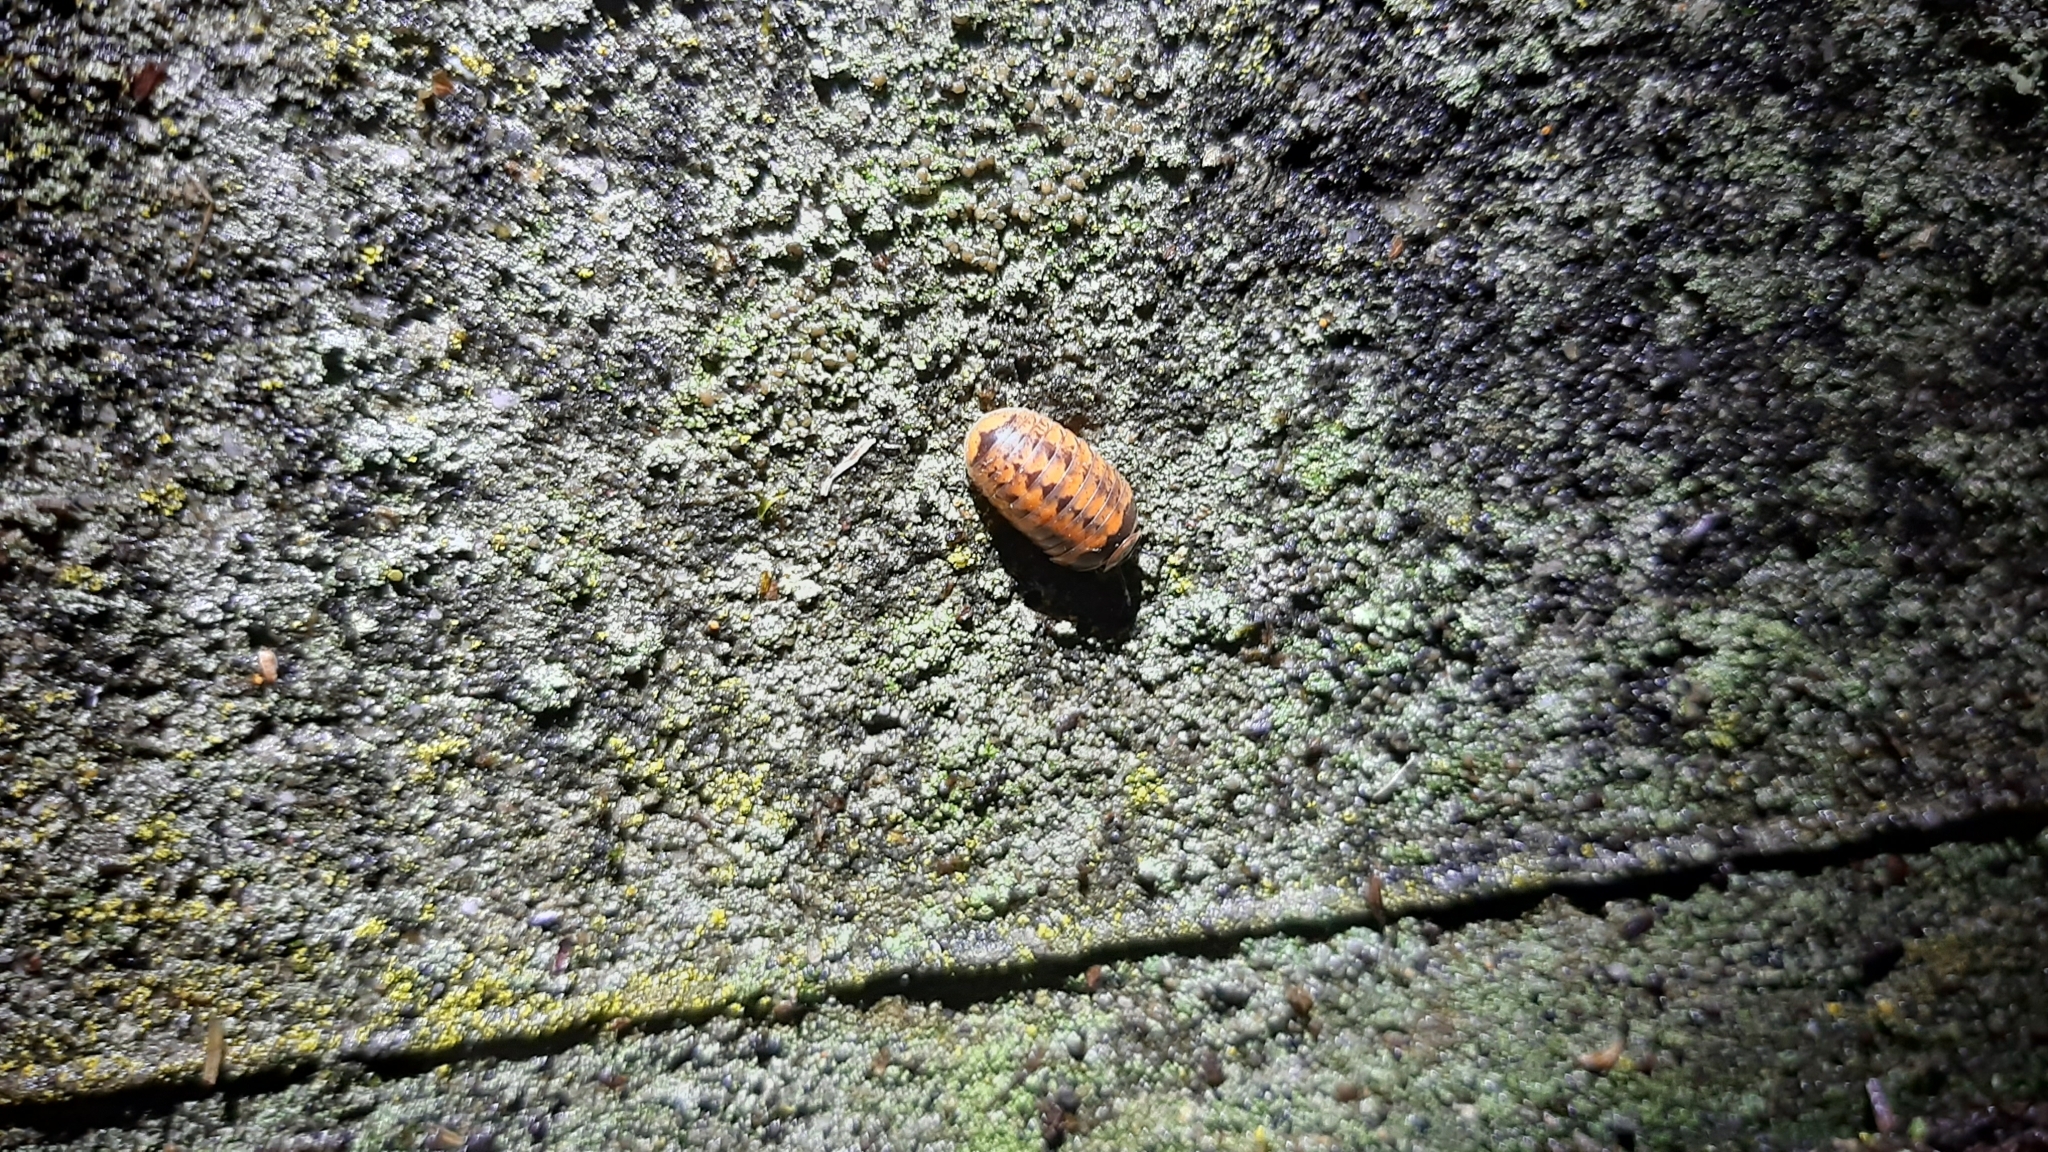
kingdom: Animalia
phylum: Arthropoda
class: Diplopoda
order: Glomerida
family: Glomeridae
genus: Glomeris
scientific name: Glomeris klugii
